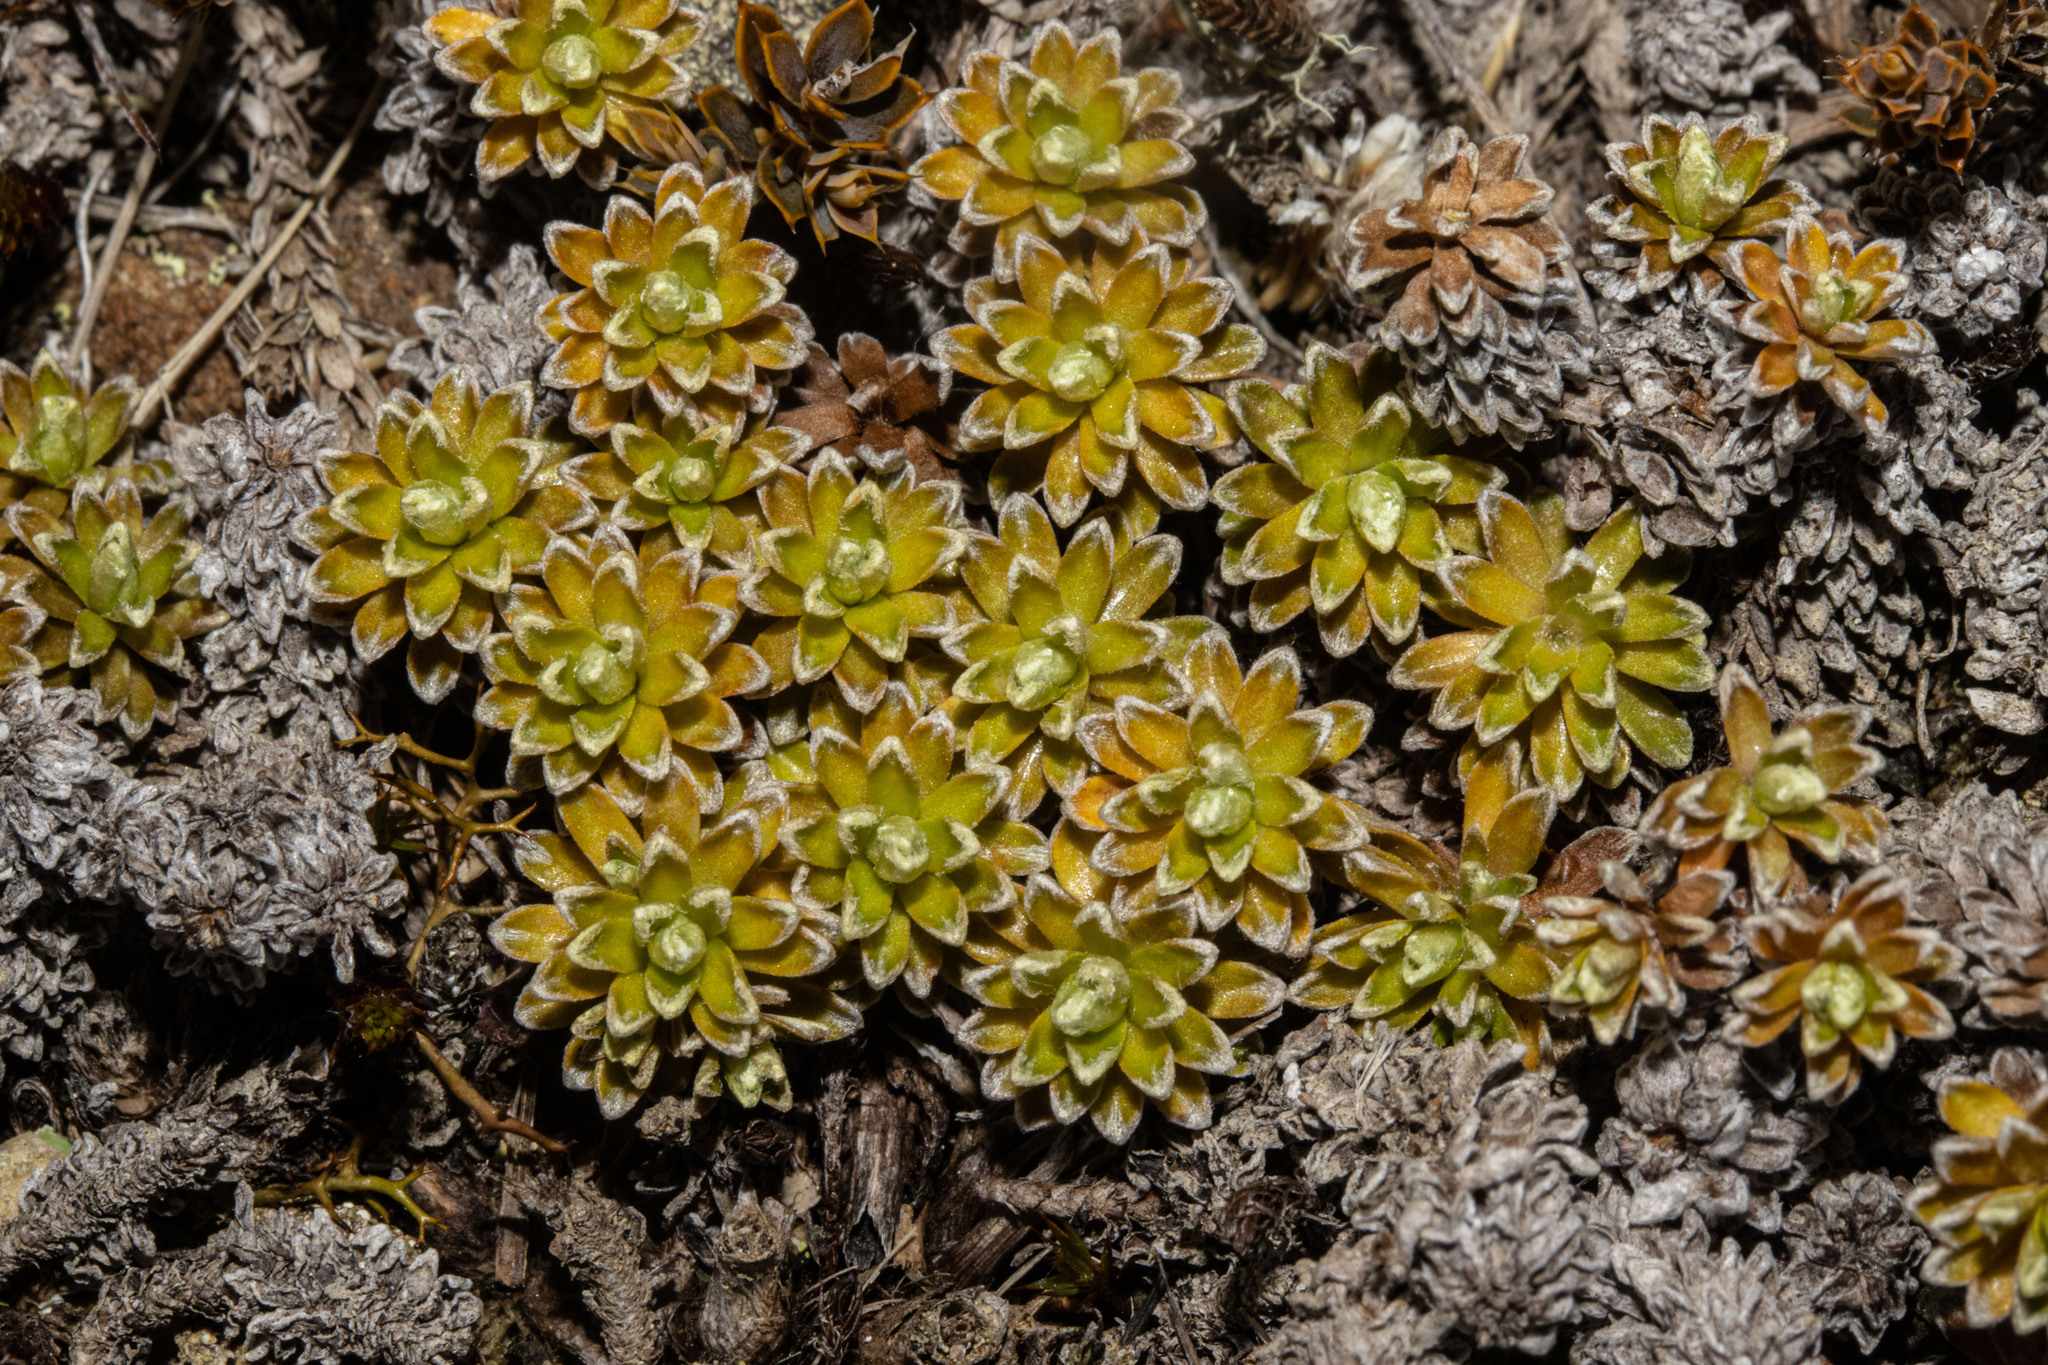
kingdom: Plantae
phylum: Tracheophyta
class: Magnoliopsida
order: Asterales
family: Asteraceae
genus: Raoulia
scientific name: Raoulia subsericea
